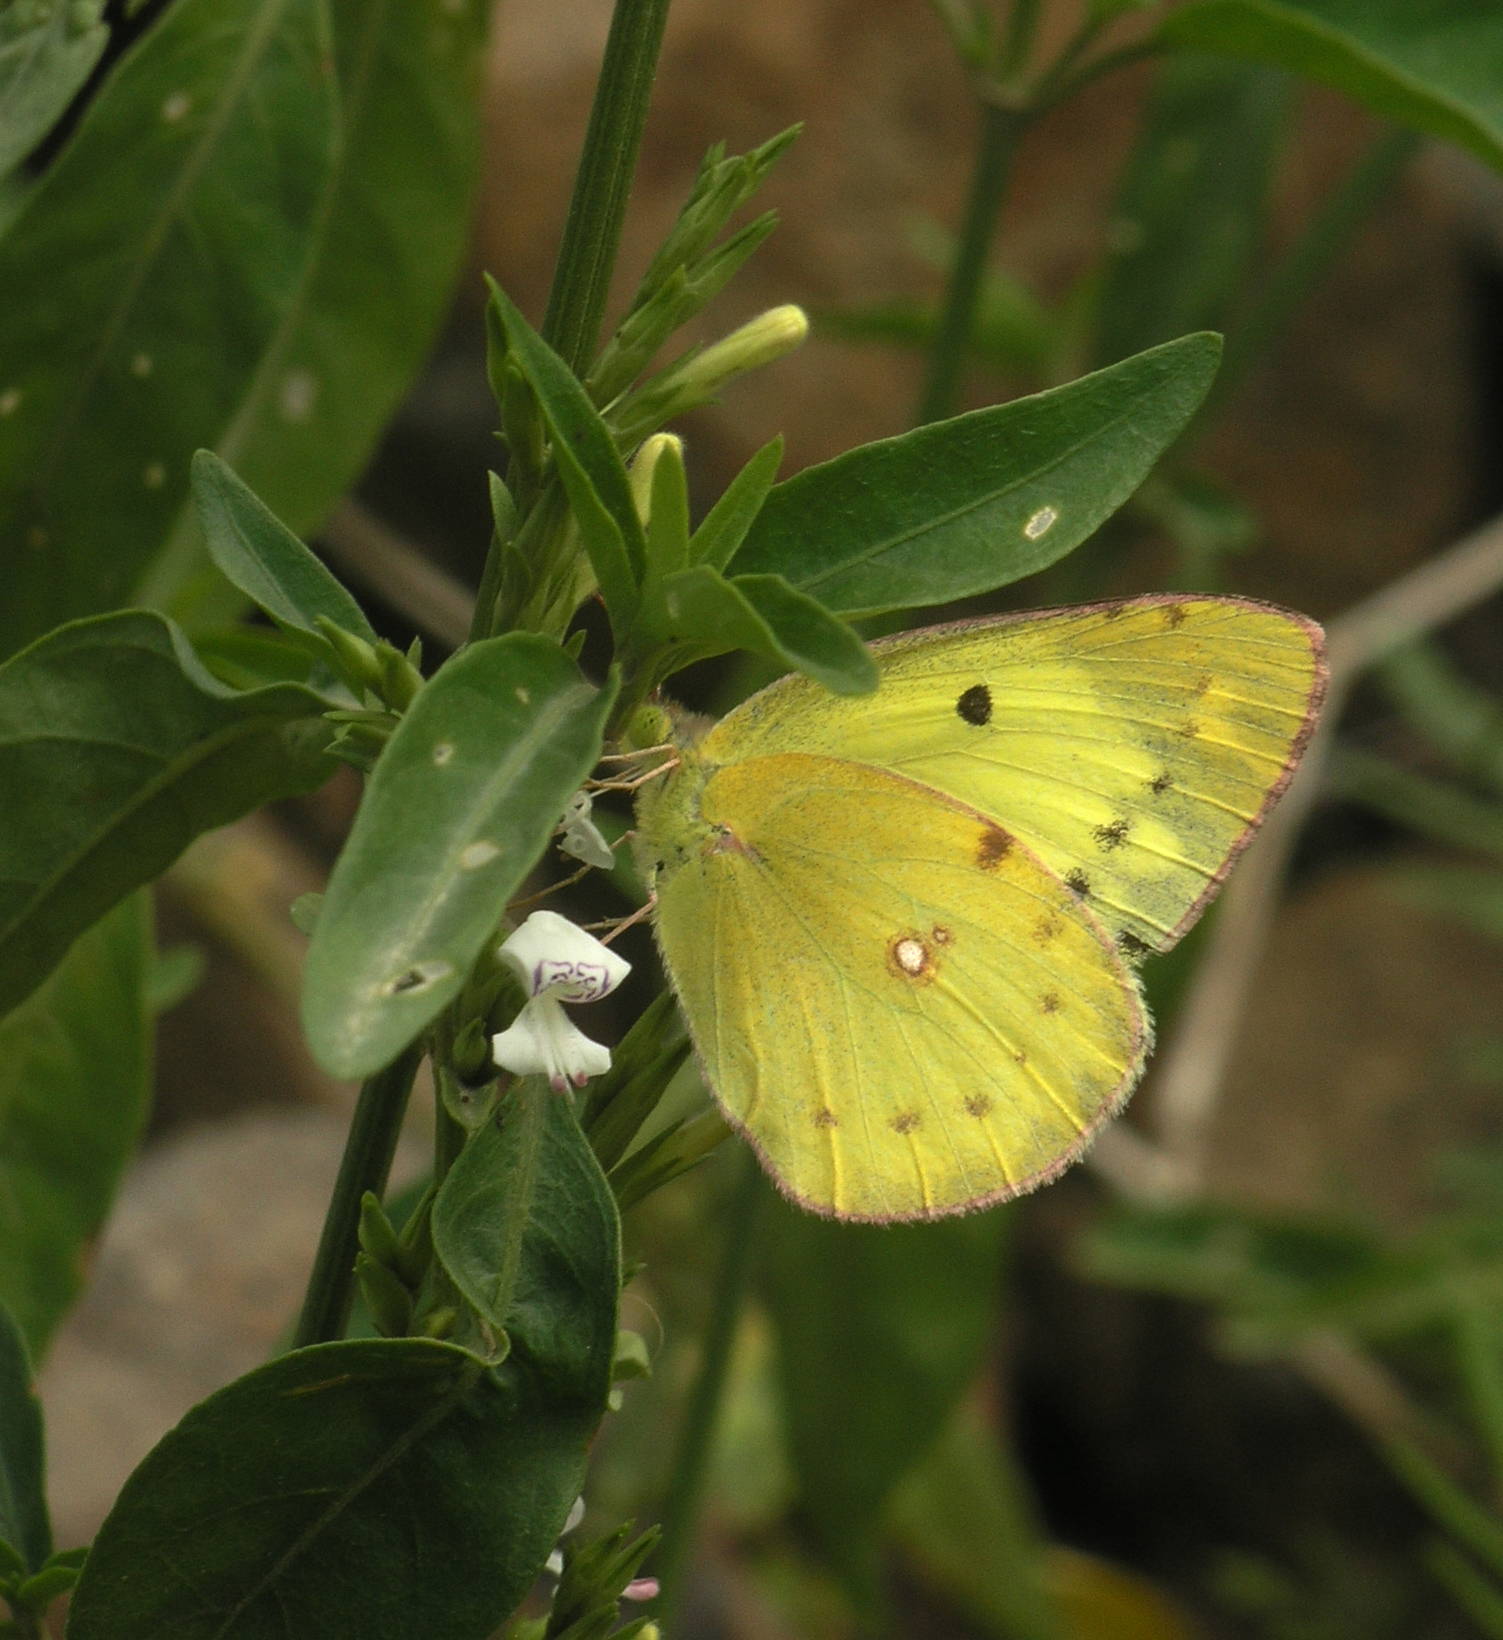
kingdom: Animalia
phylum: Arthropoda
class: Insecta
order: Lepidoptera
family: Pieridae
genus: Colias
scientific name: Colias marnoana
